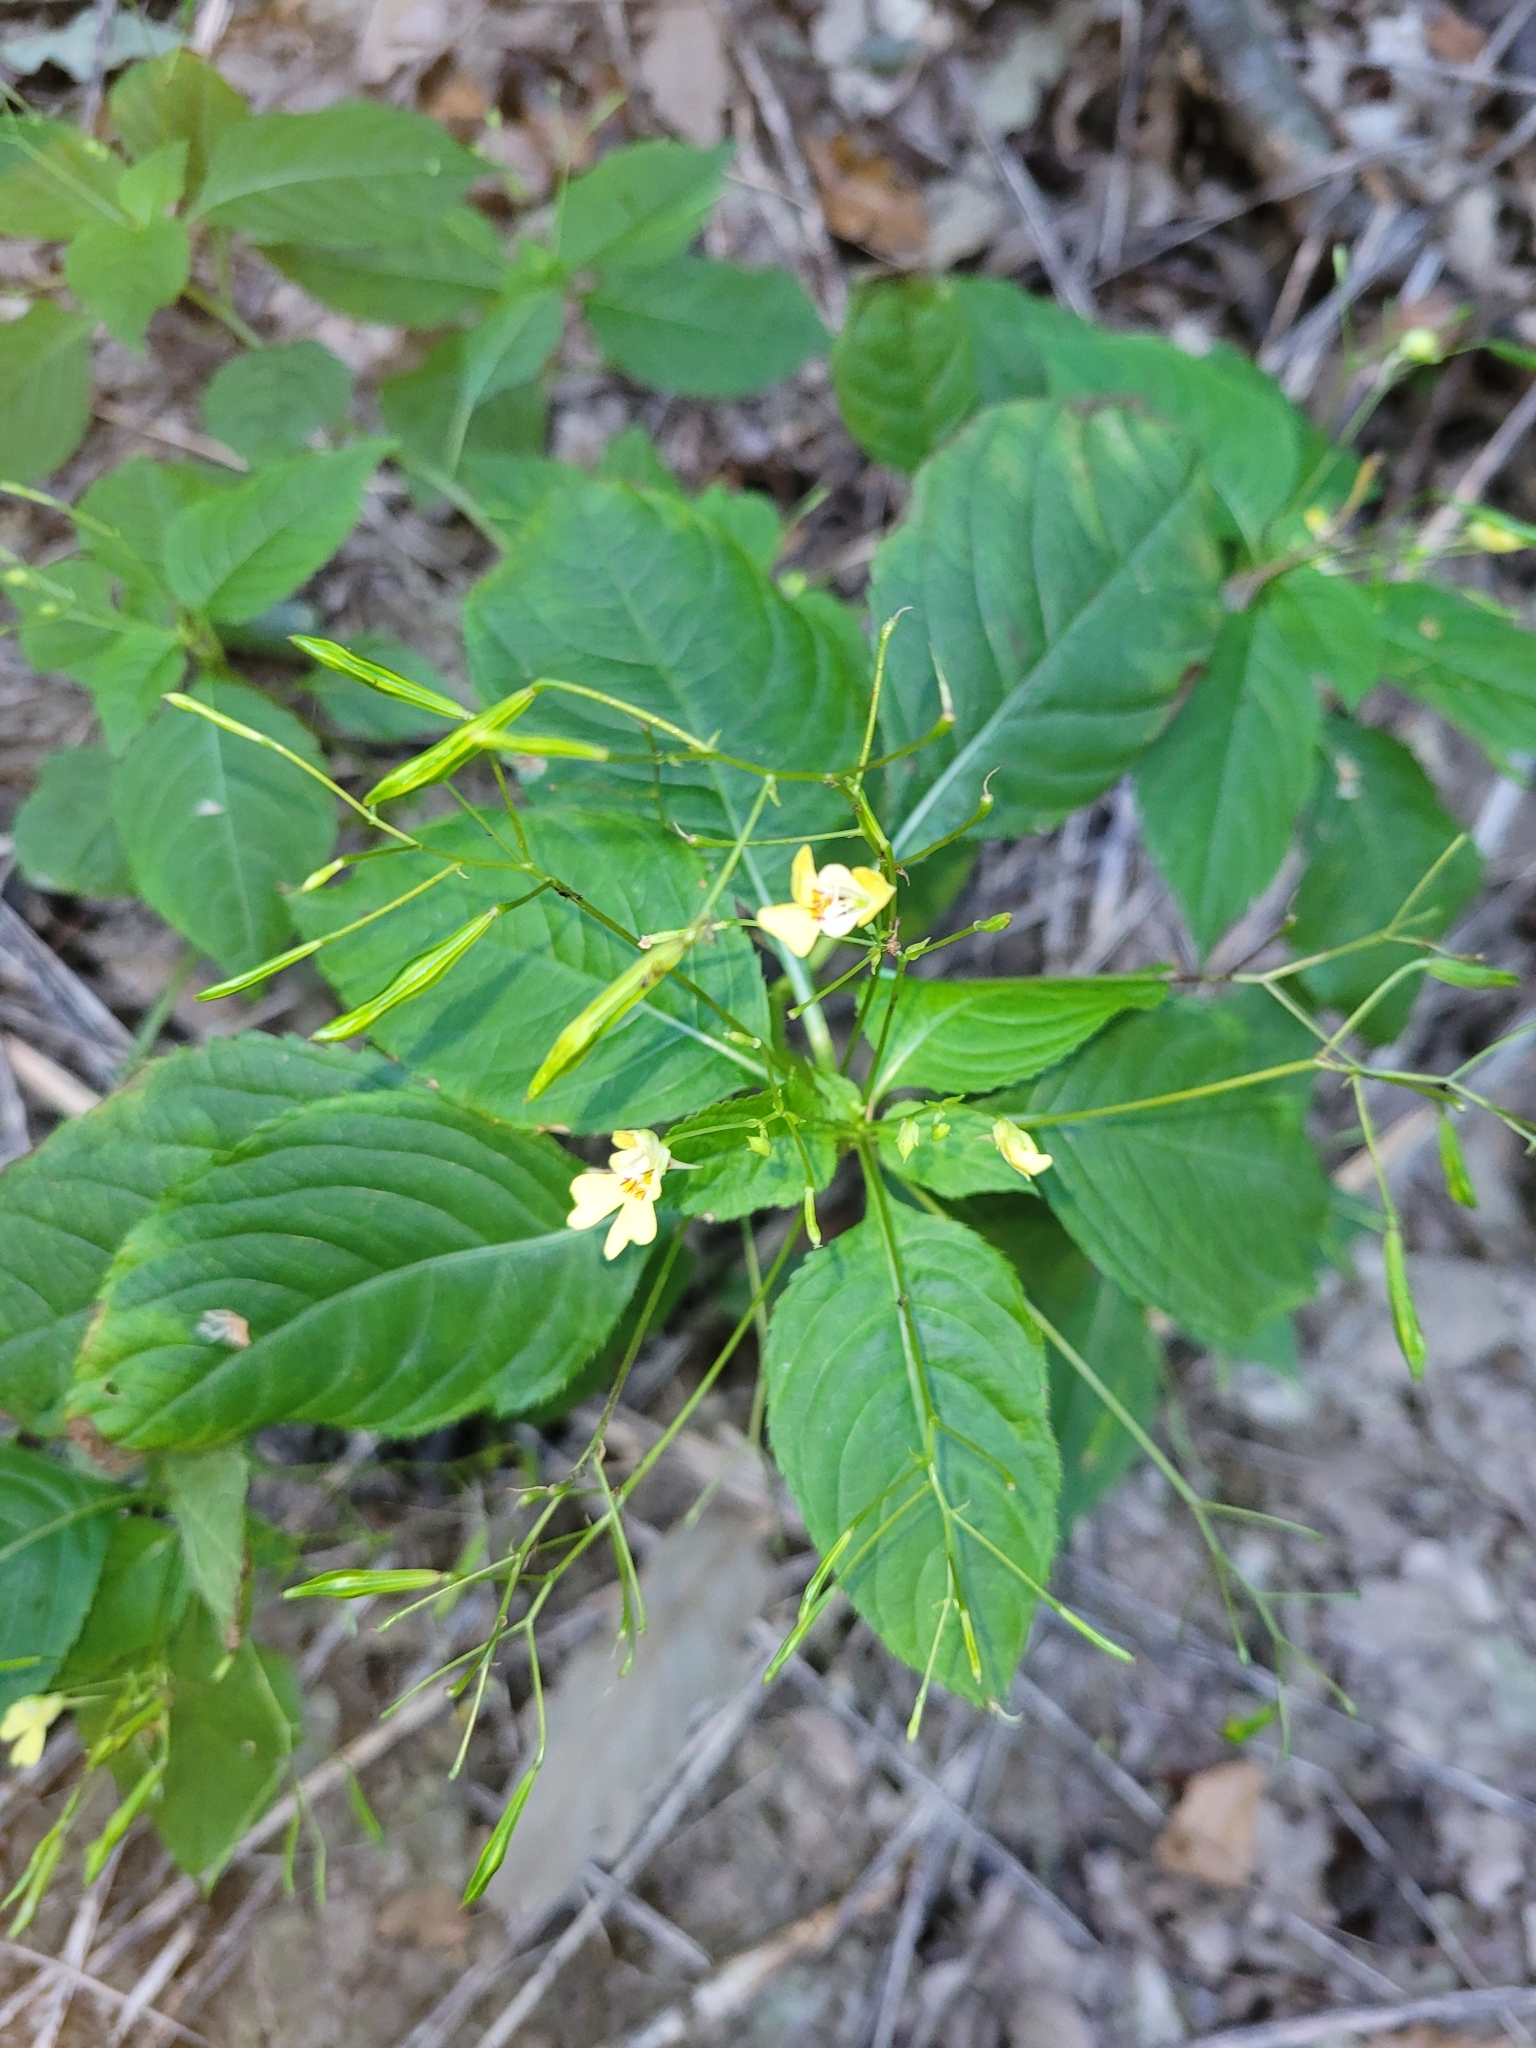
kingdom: Plantae
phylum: Tracheophyta
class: Magnoliopsida
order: Ericales
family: Balsaminaceae
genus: Impatiens
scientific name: Impatiens parviflora
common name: Small balsam
